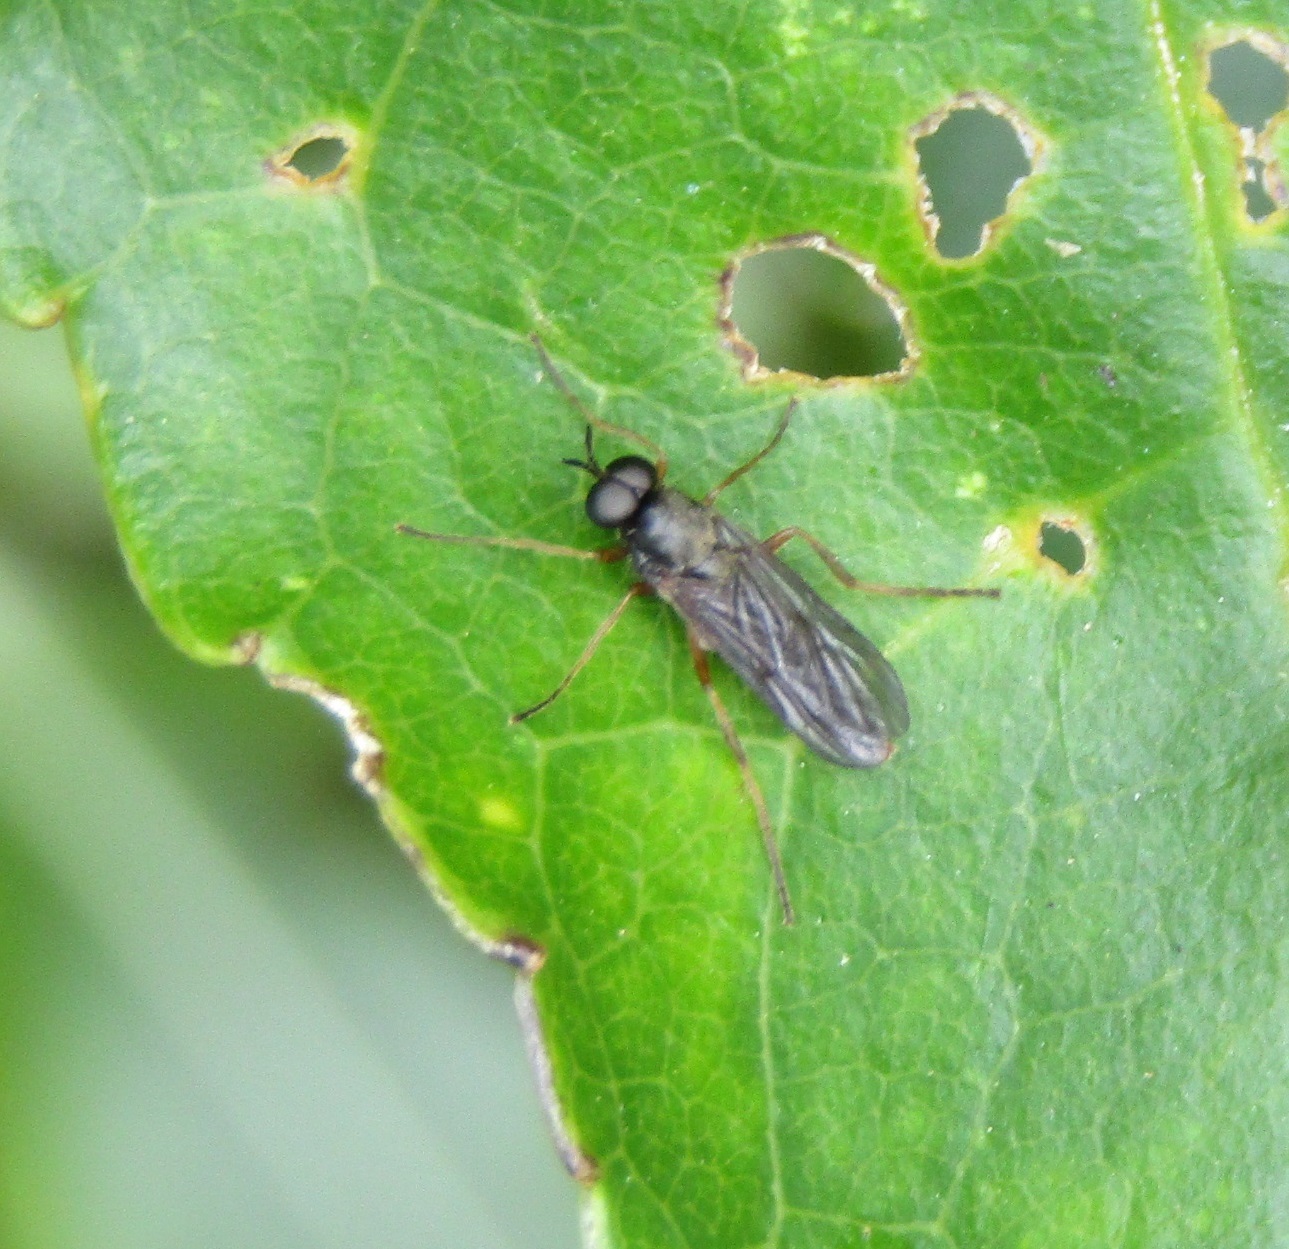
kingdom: Animalia
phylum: Arthropoda
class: Insecta
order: Diptera
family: Stratiomyidae
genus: Inopus
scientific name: Inopus rubriceps
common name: Soldier fly
